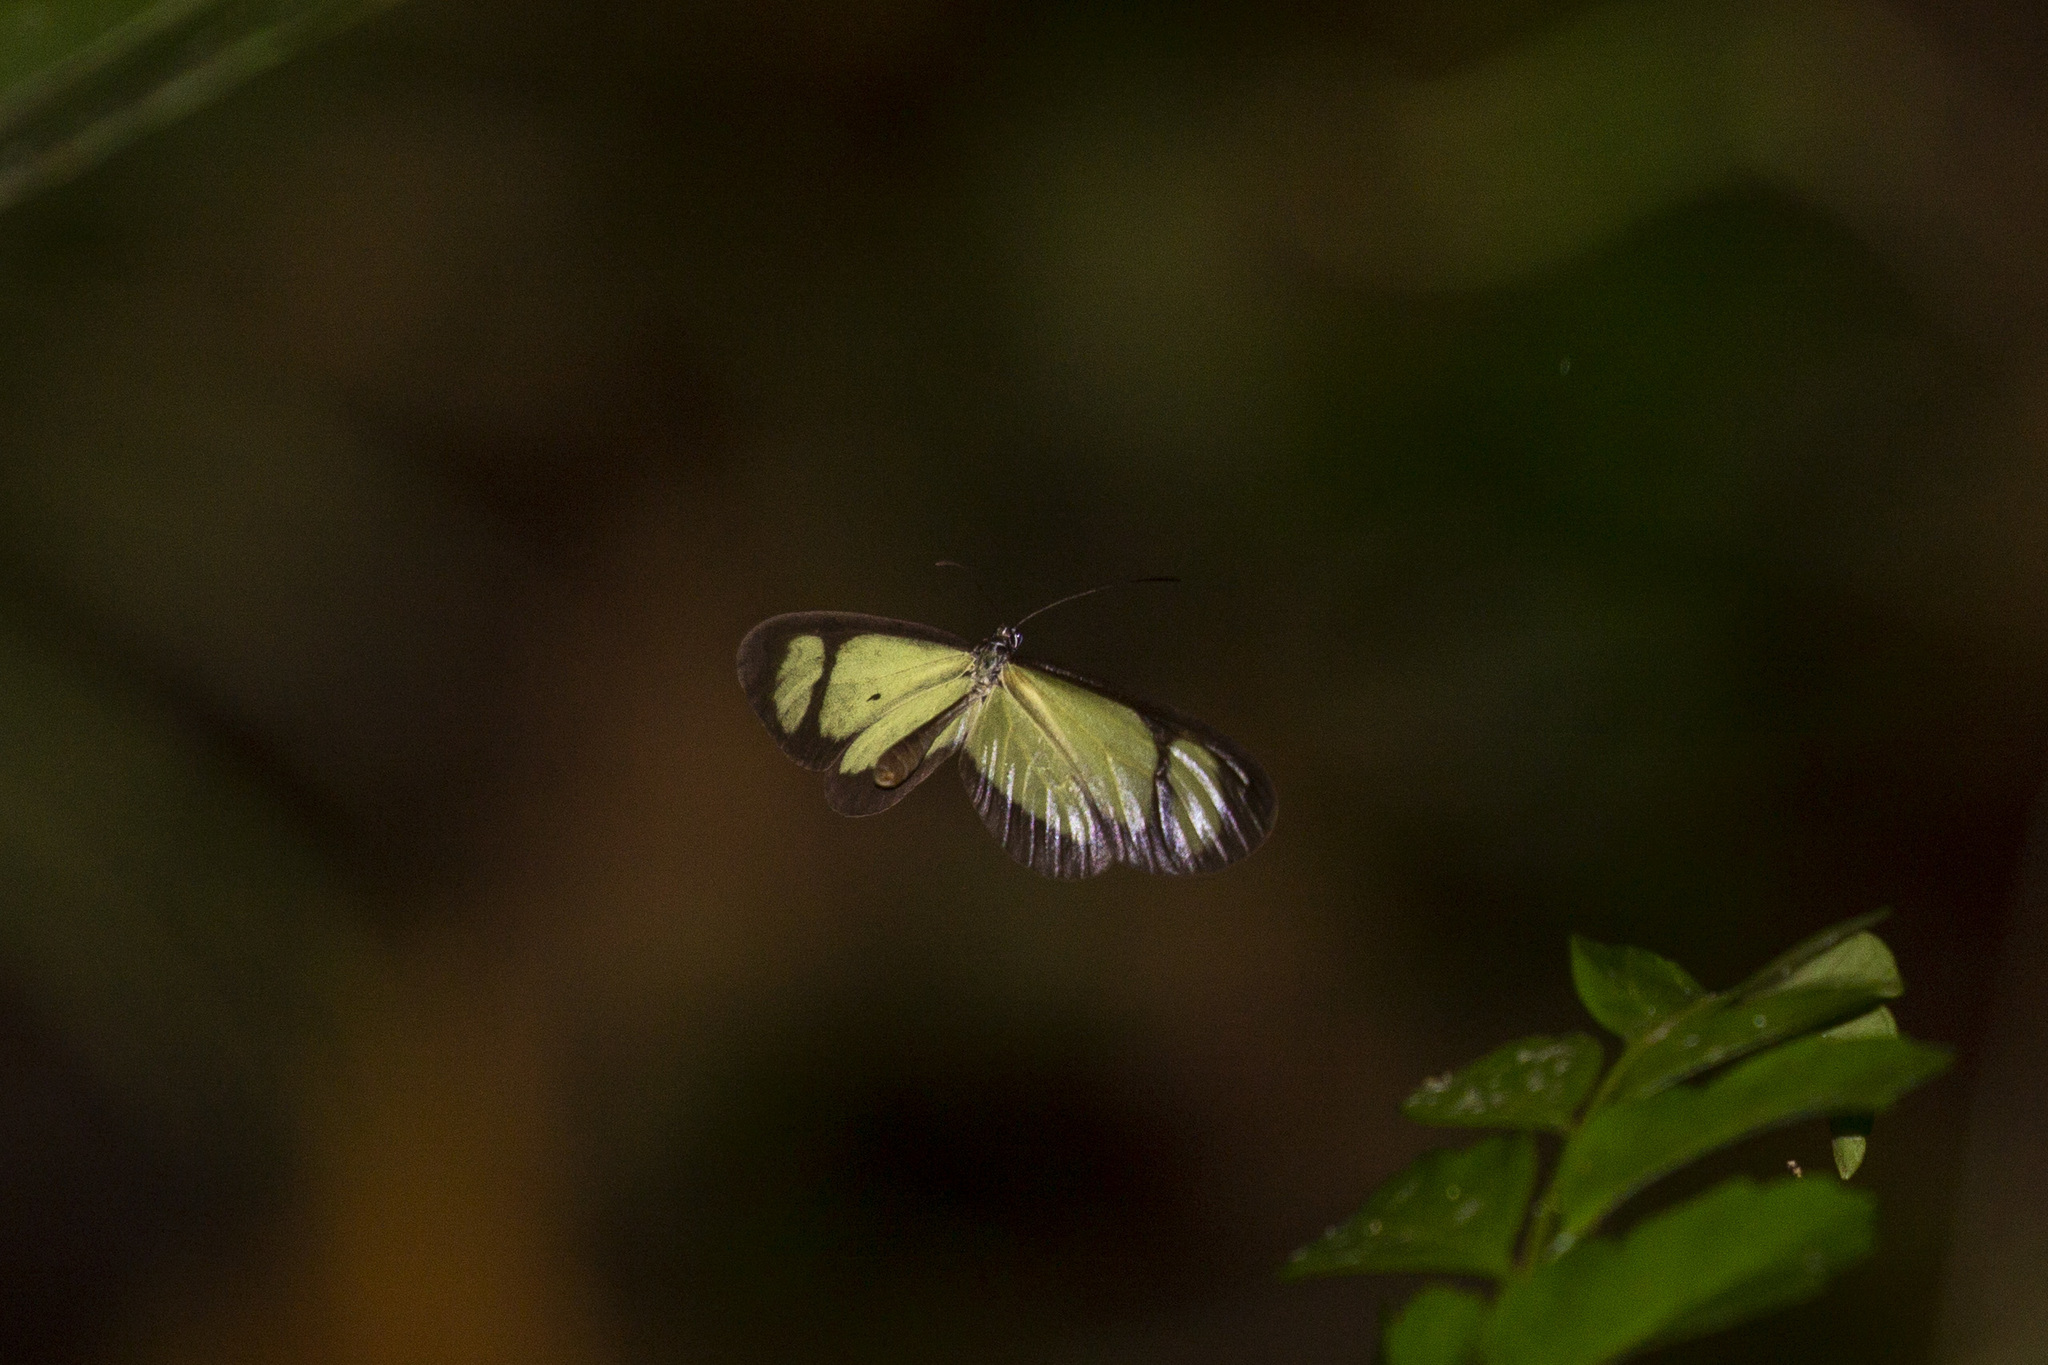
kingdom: Animalia
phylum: Arthropoda
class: Insecta
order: Lepidoptera
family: Nymphalidae
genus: Heteroscada
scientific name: Heteroscada reckia
